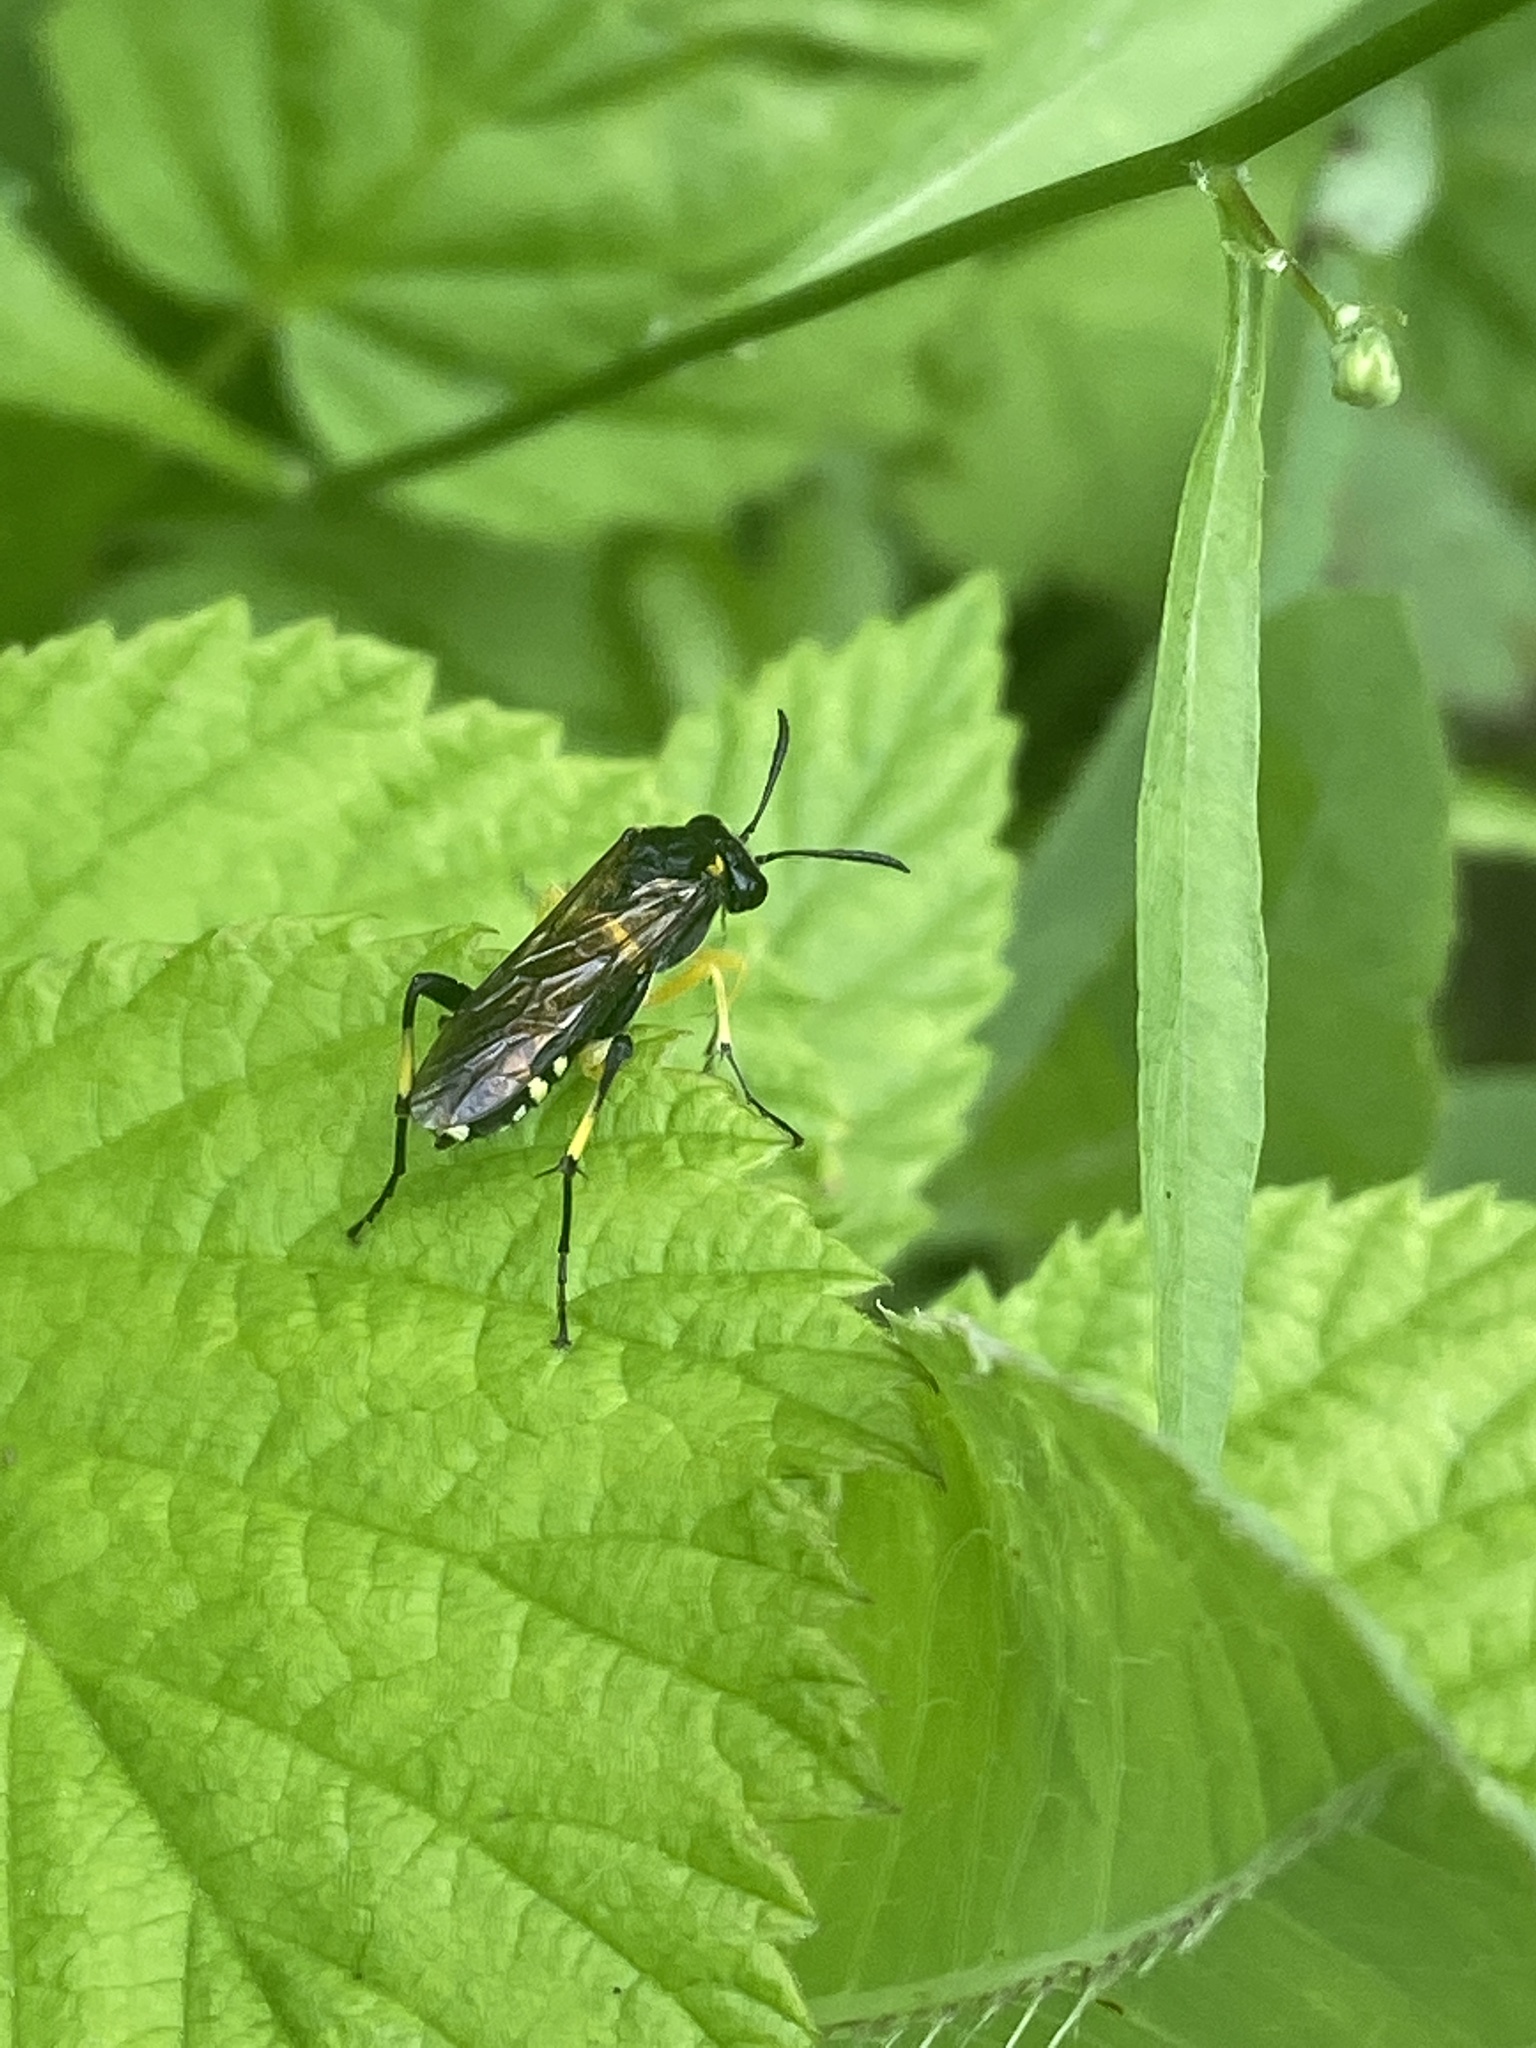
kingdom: Animalia
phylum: Arthropoda
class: Insecta
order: Hymenoptera
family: Tenthredinidae
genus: Macrophya
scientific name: Macrophya montana
